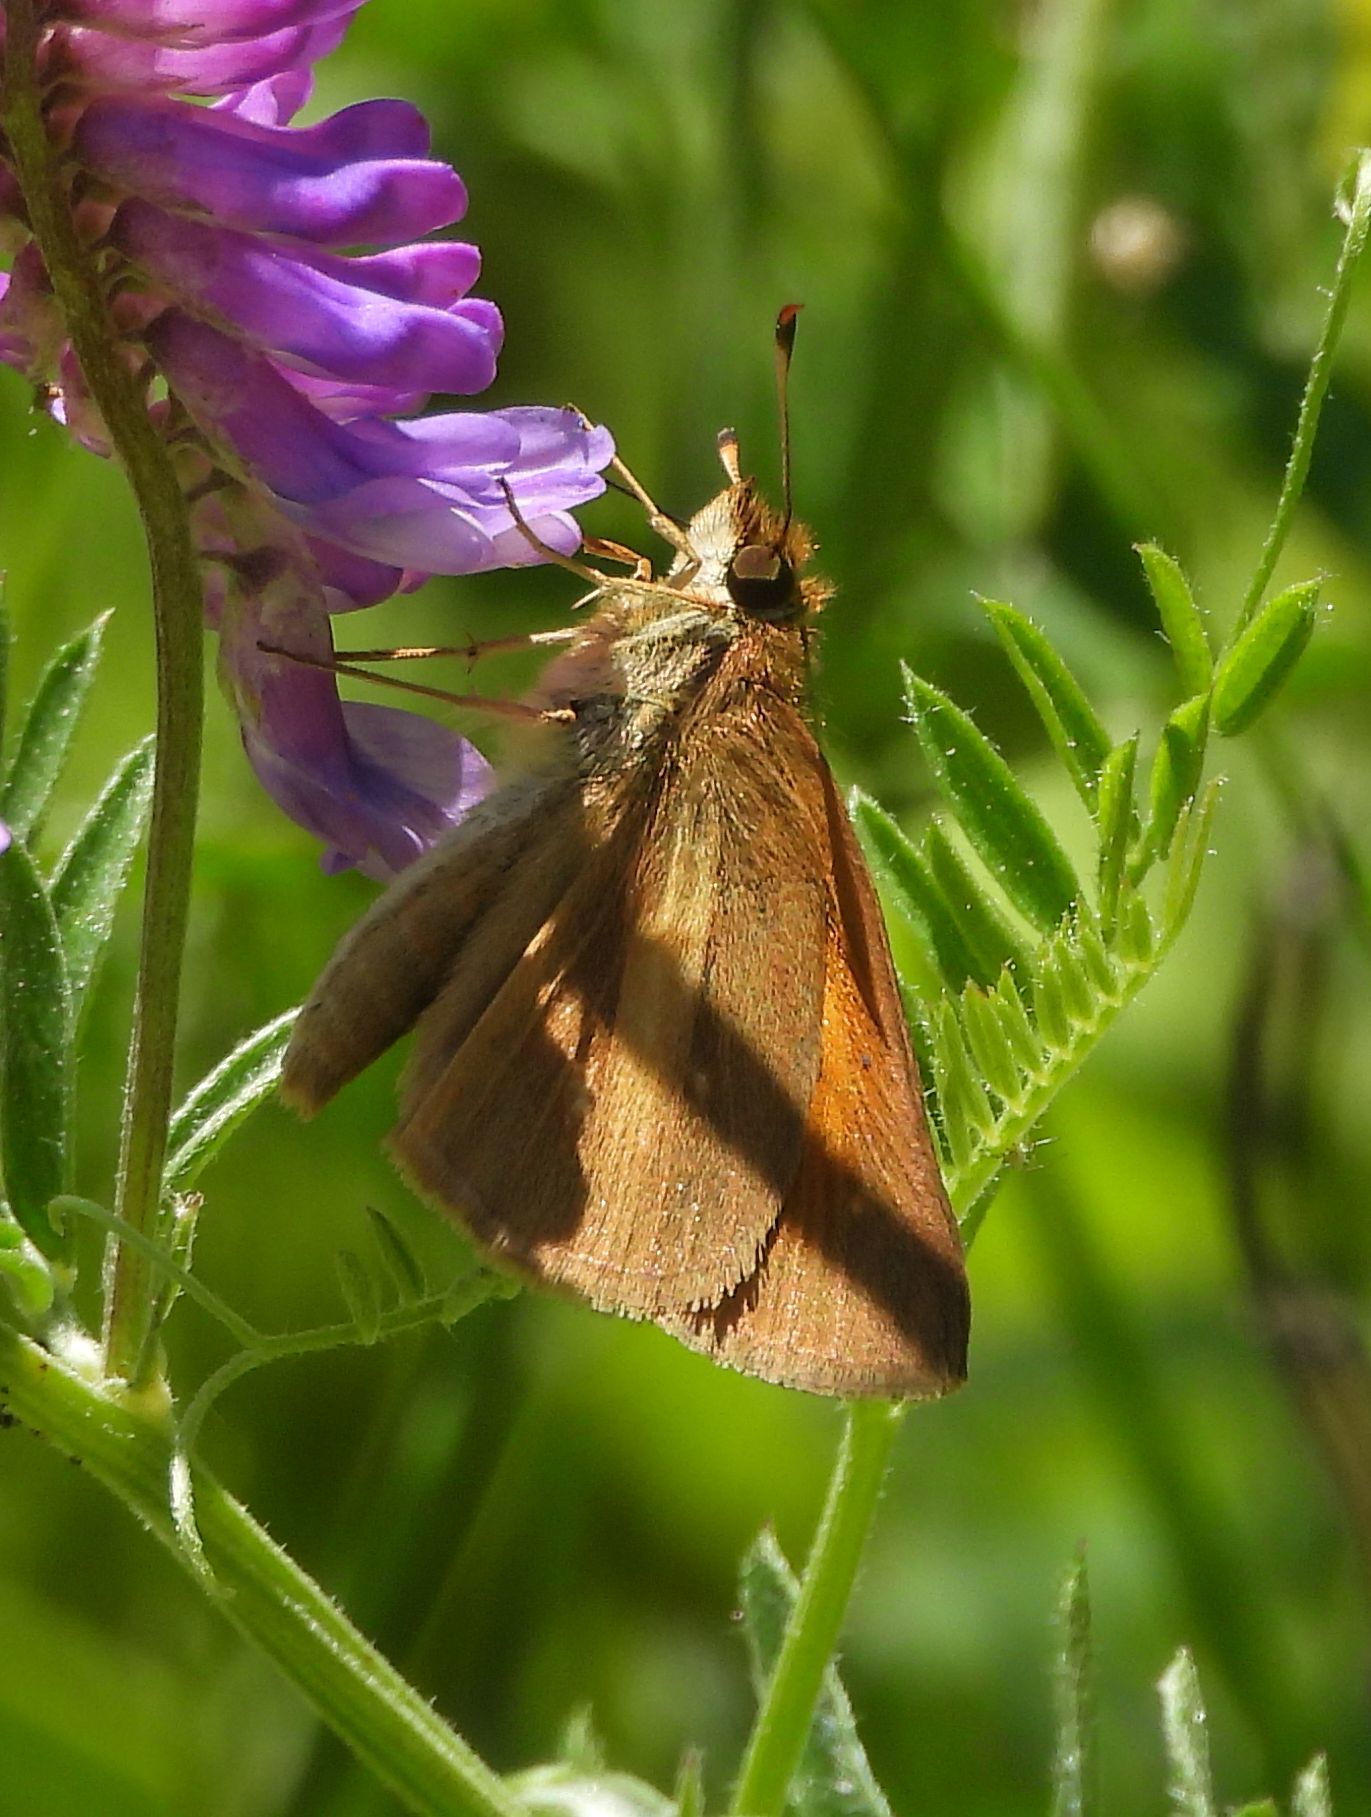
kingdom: Animalia
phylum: Arthropoda
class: Insecta
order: Lepidoptera
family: Hesperiidae
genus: Poanes
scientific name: Poanes viator
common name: Broad-winged skipper
